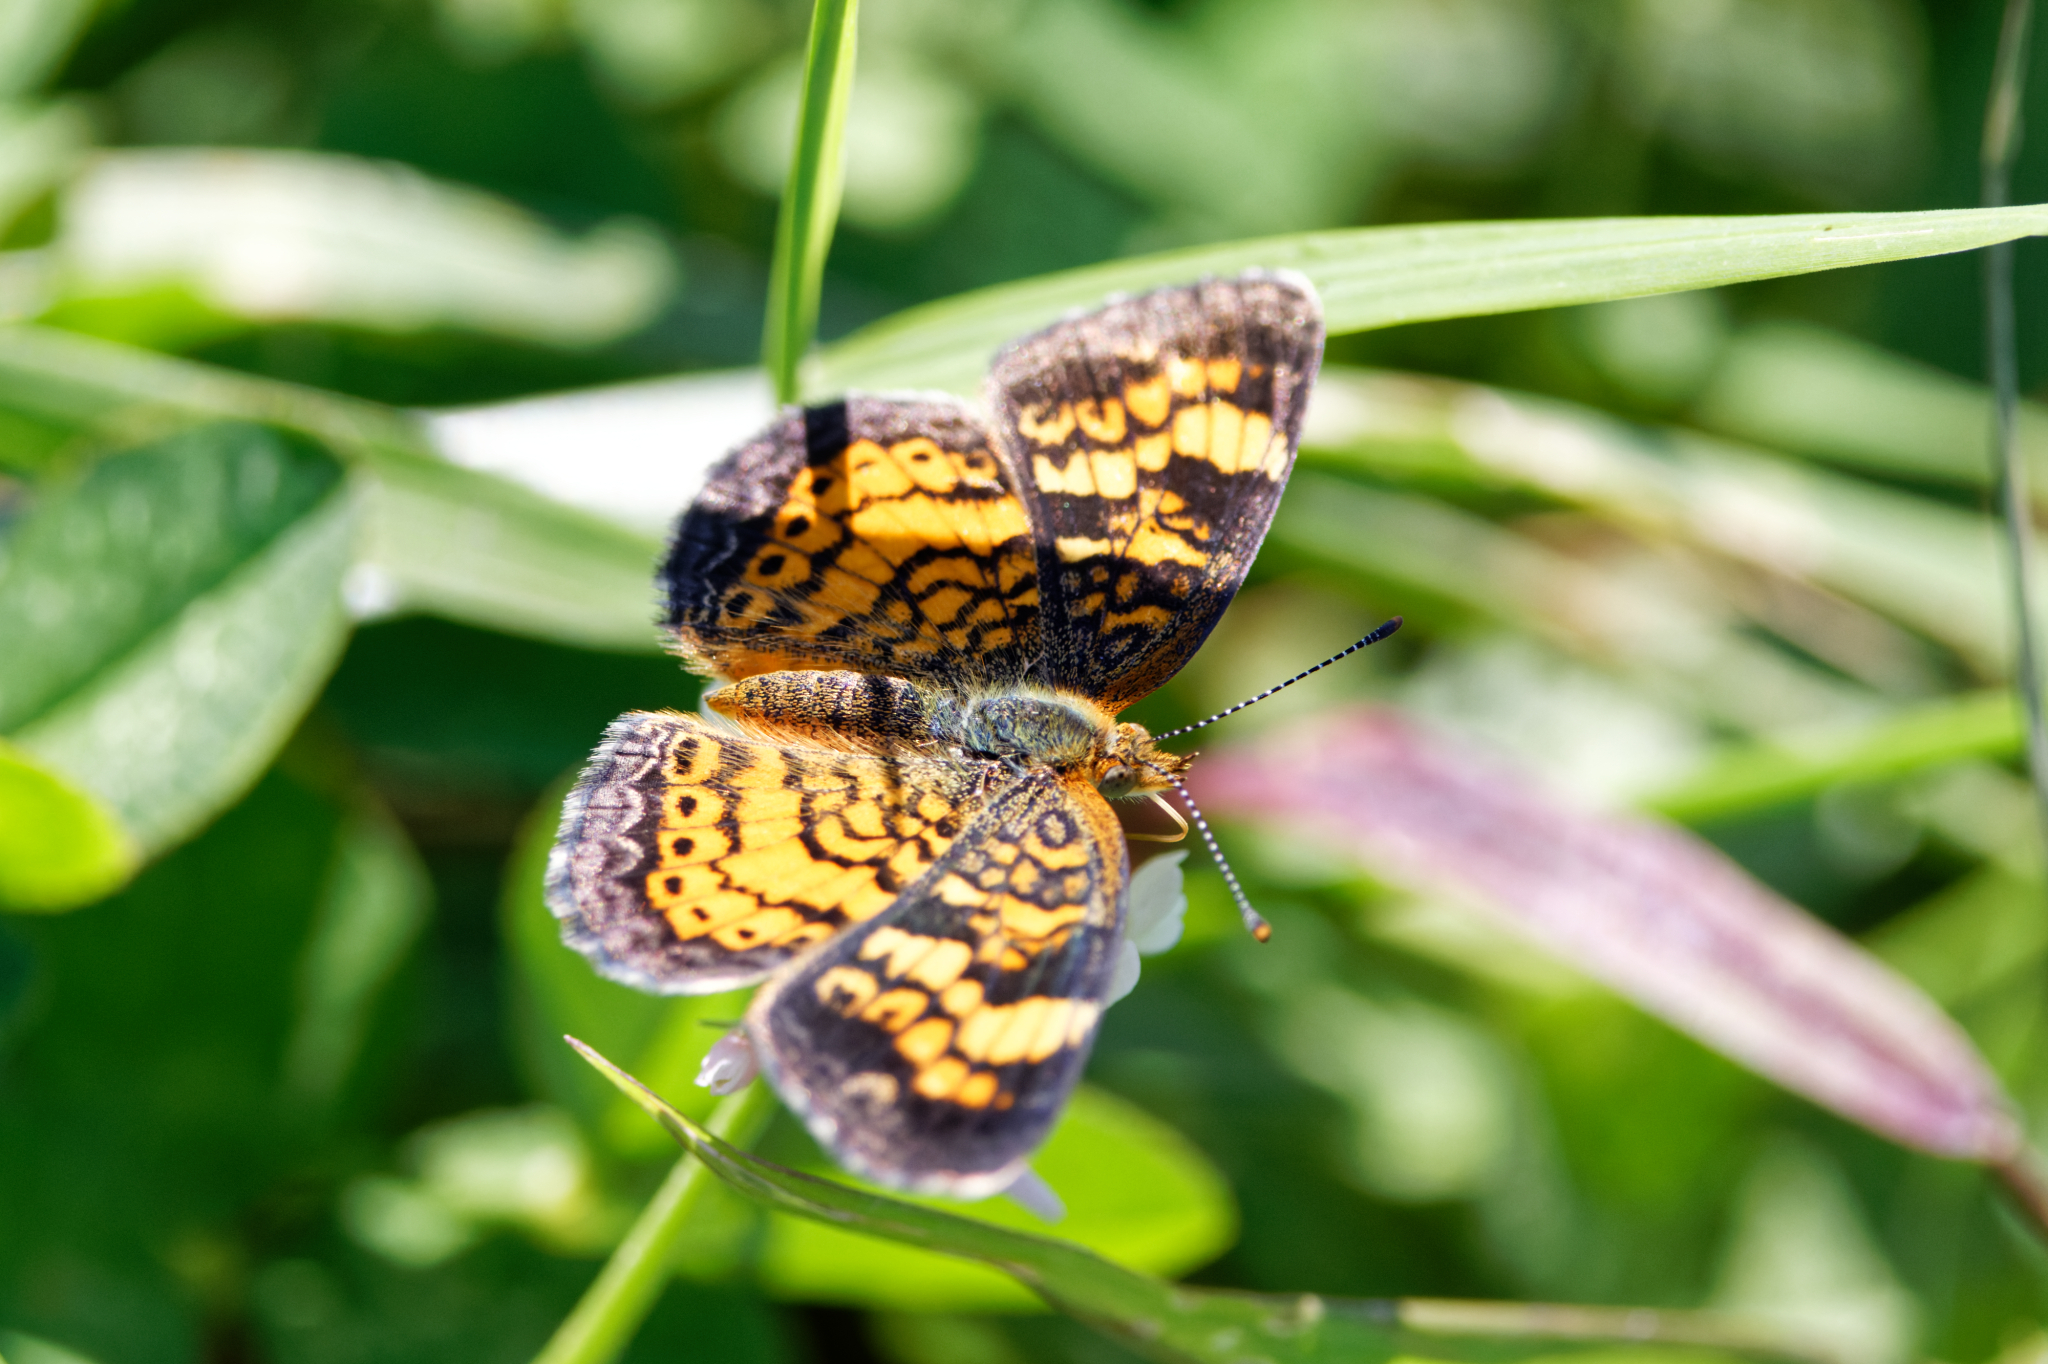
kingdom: Animalia
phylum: Arthropoda
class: Insecta
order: Lepidoptera
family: Nymphalidae
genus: Phyciodes
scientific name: Phyciodes tharos
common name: Pearl crescent
